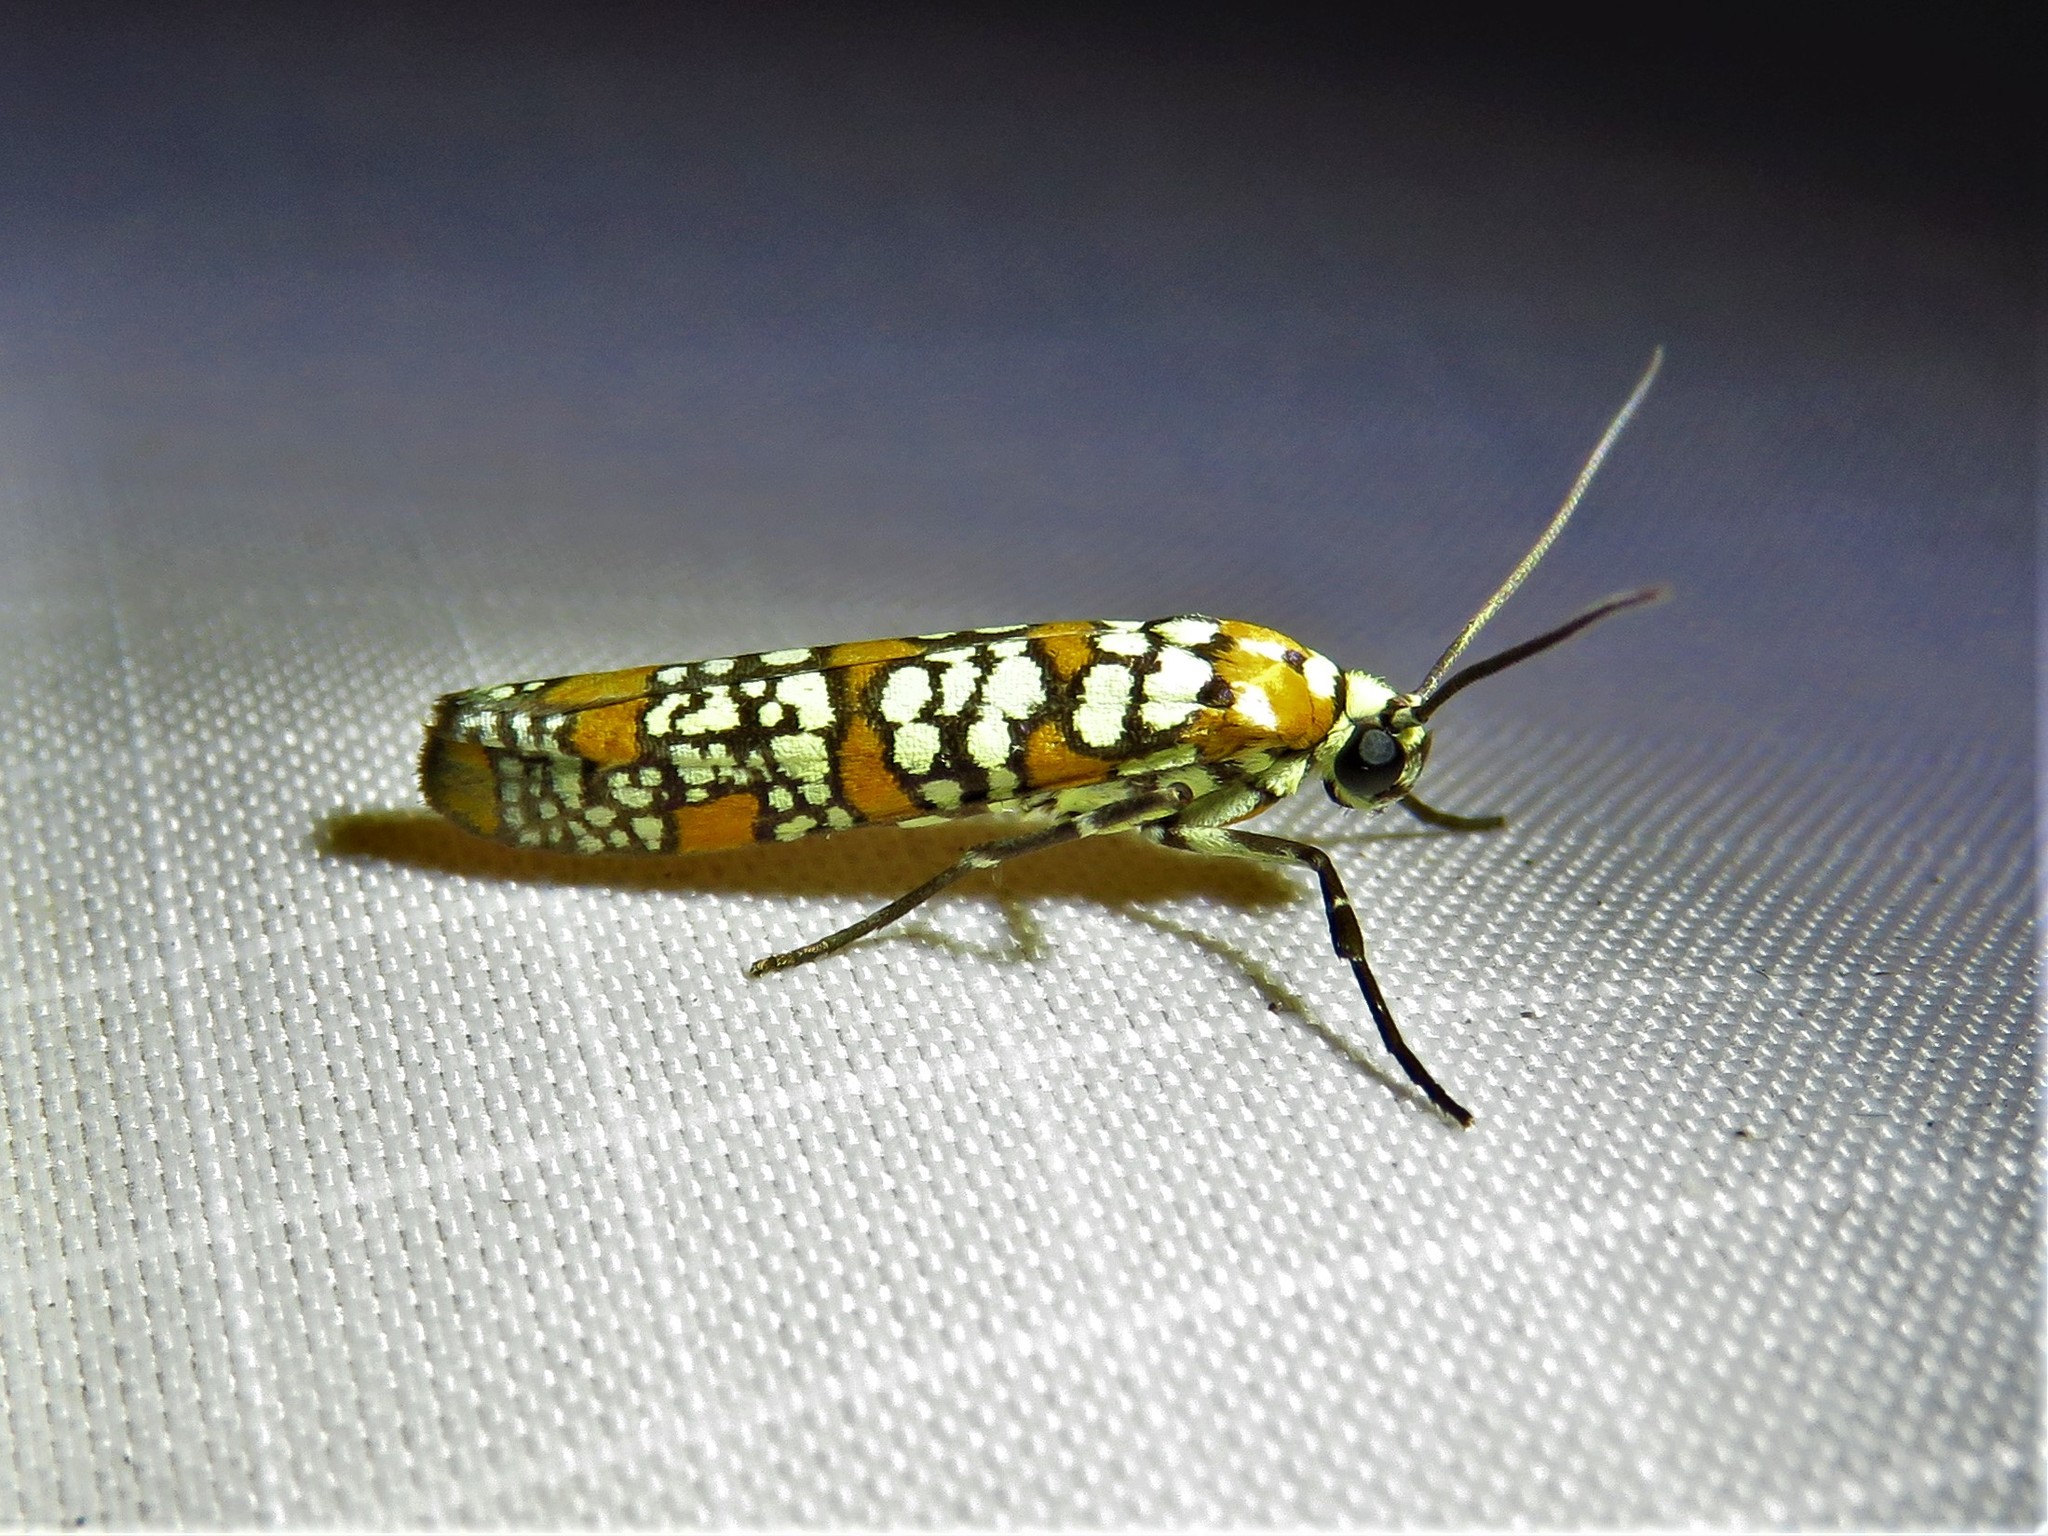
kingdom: Animalia
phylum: Arthropoda
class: Insecta
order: Lepidoptera
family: Attevidae
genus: Atteva
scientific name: Atteva punctella
